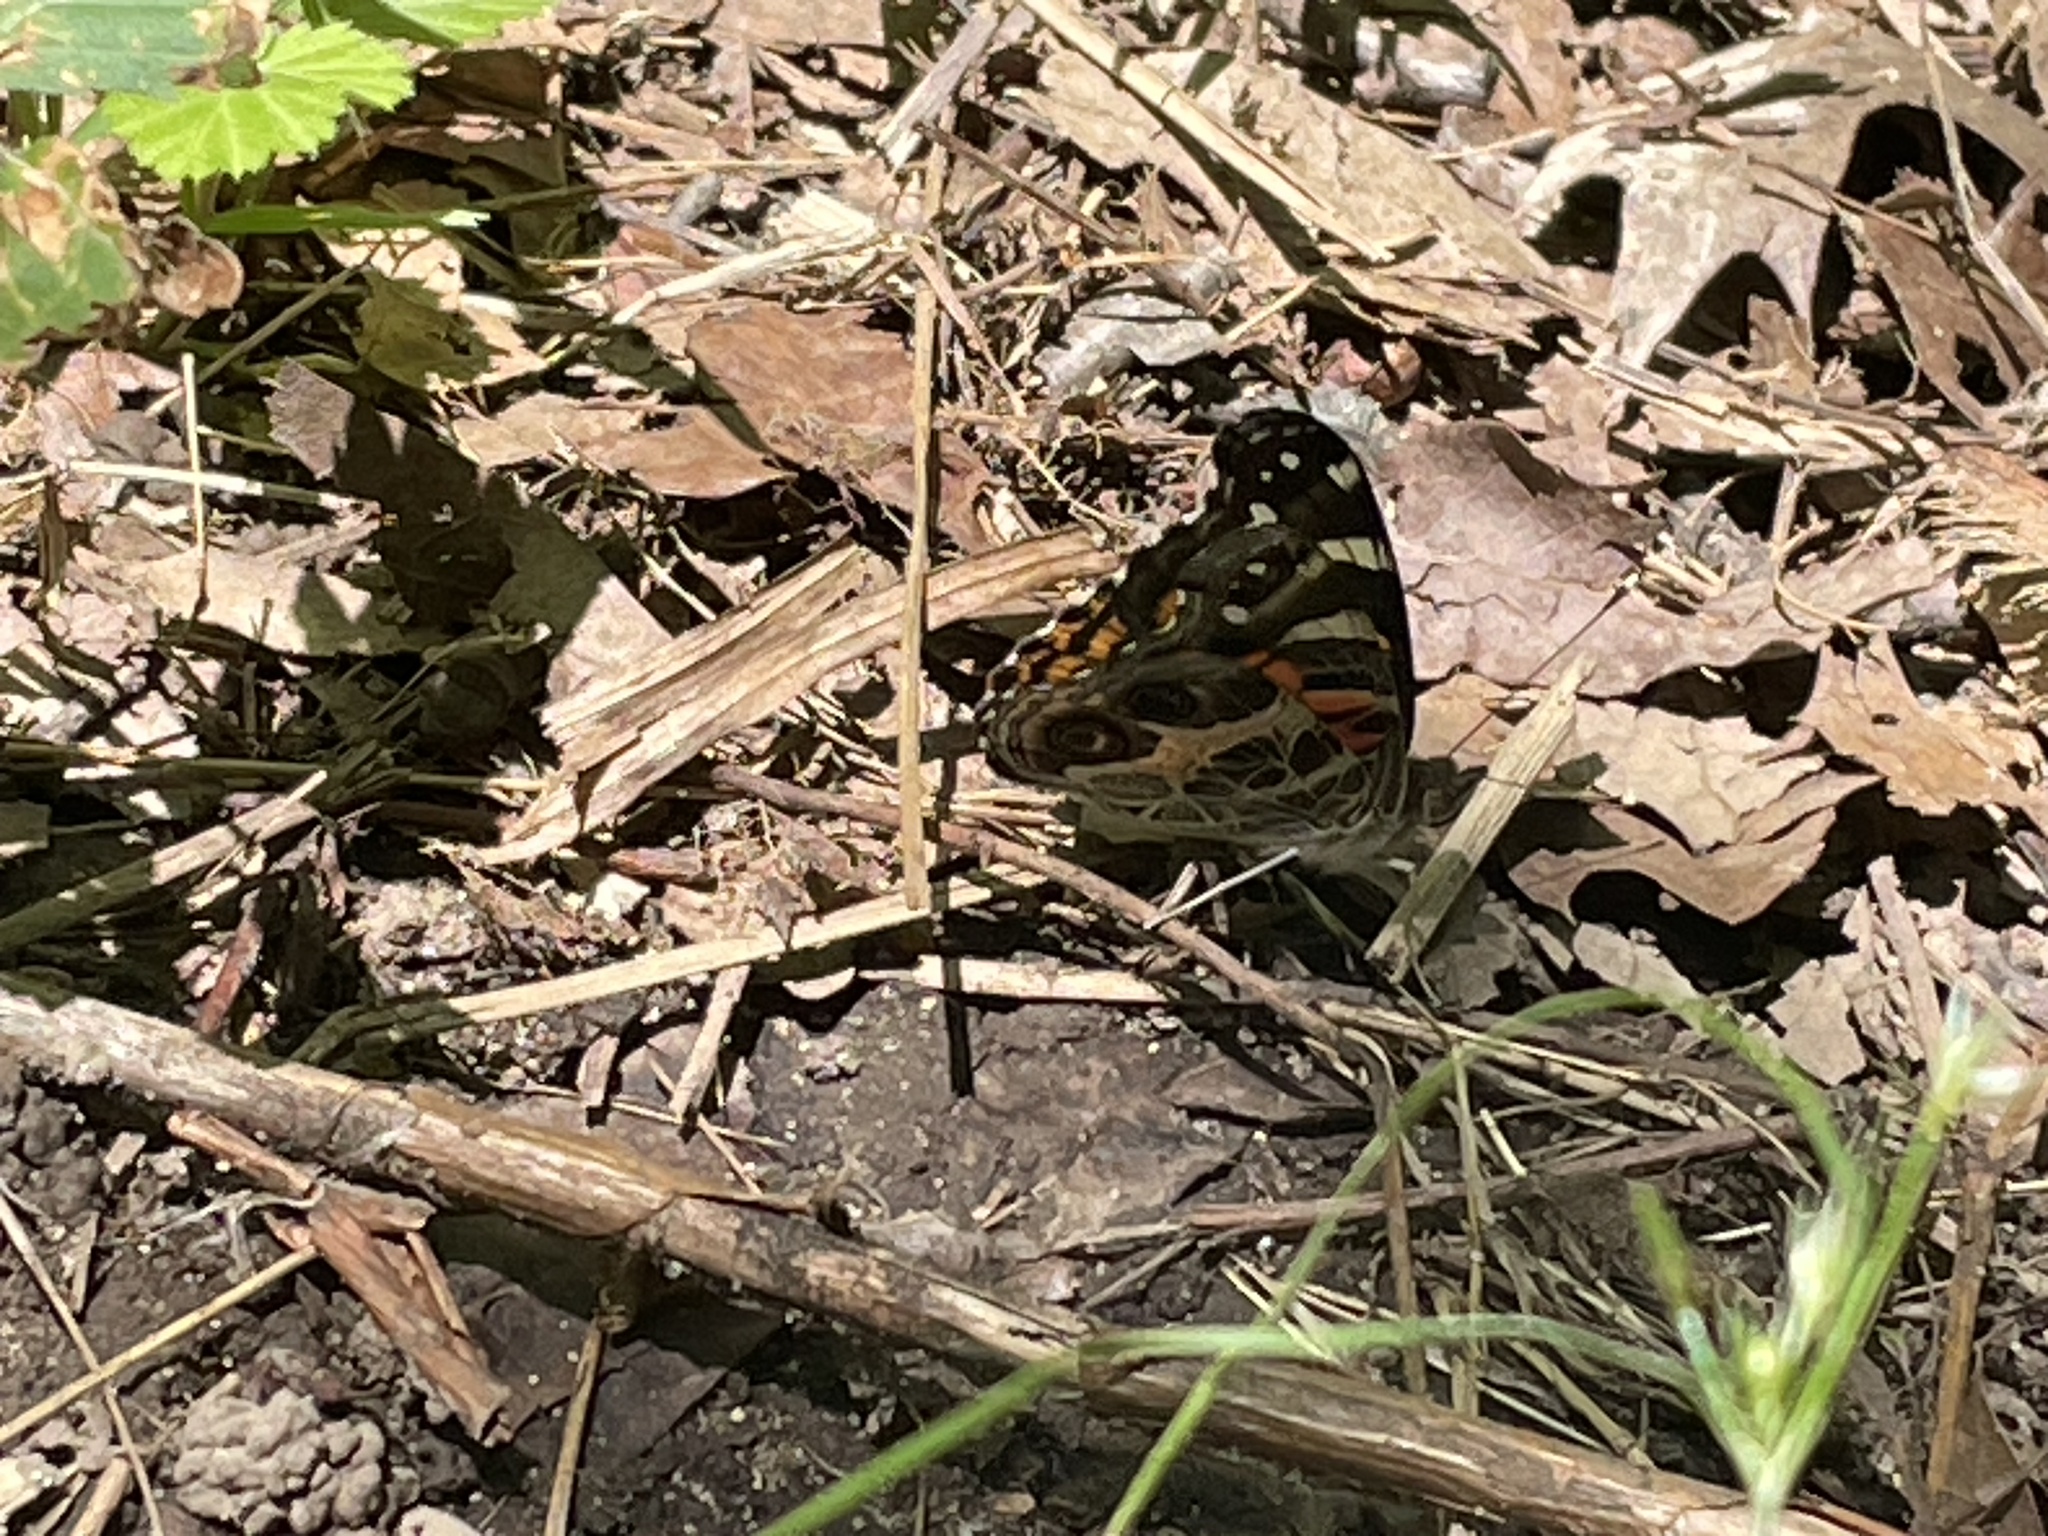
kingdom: Animalia
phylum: Arthropoda
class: Insecta
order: Lepidoptera
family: Nymphalidae
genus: Vanessa
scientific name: Vanessa virginiensis
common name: American lady
